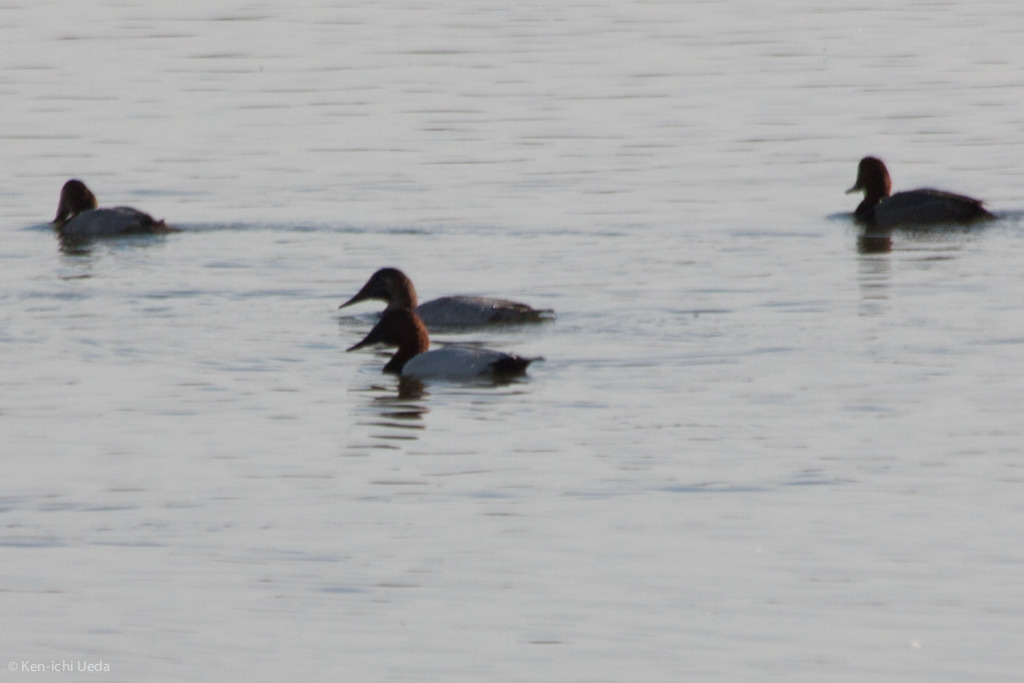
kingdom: Animalia
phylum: Chordata
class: Aves
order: Anseriformes
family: Anatidae
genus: Aythya
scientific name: Aythya valisineria
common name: Canvasback
